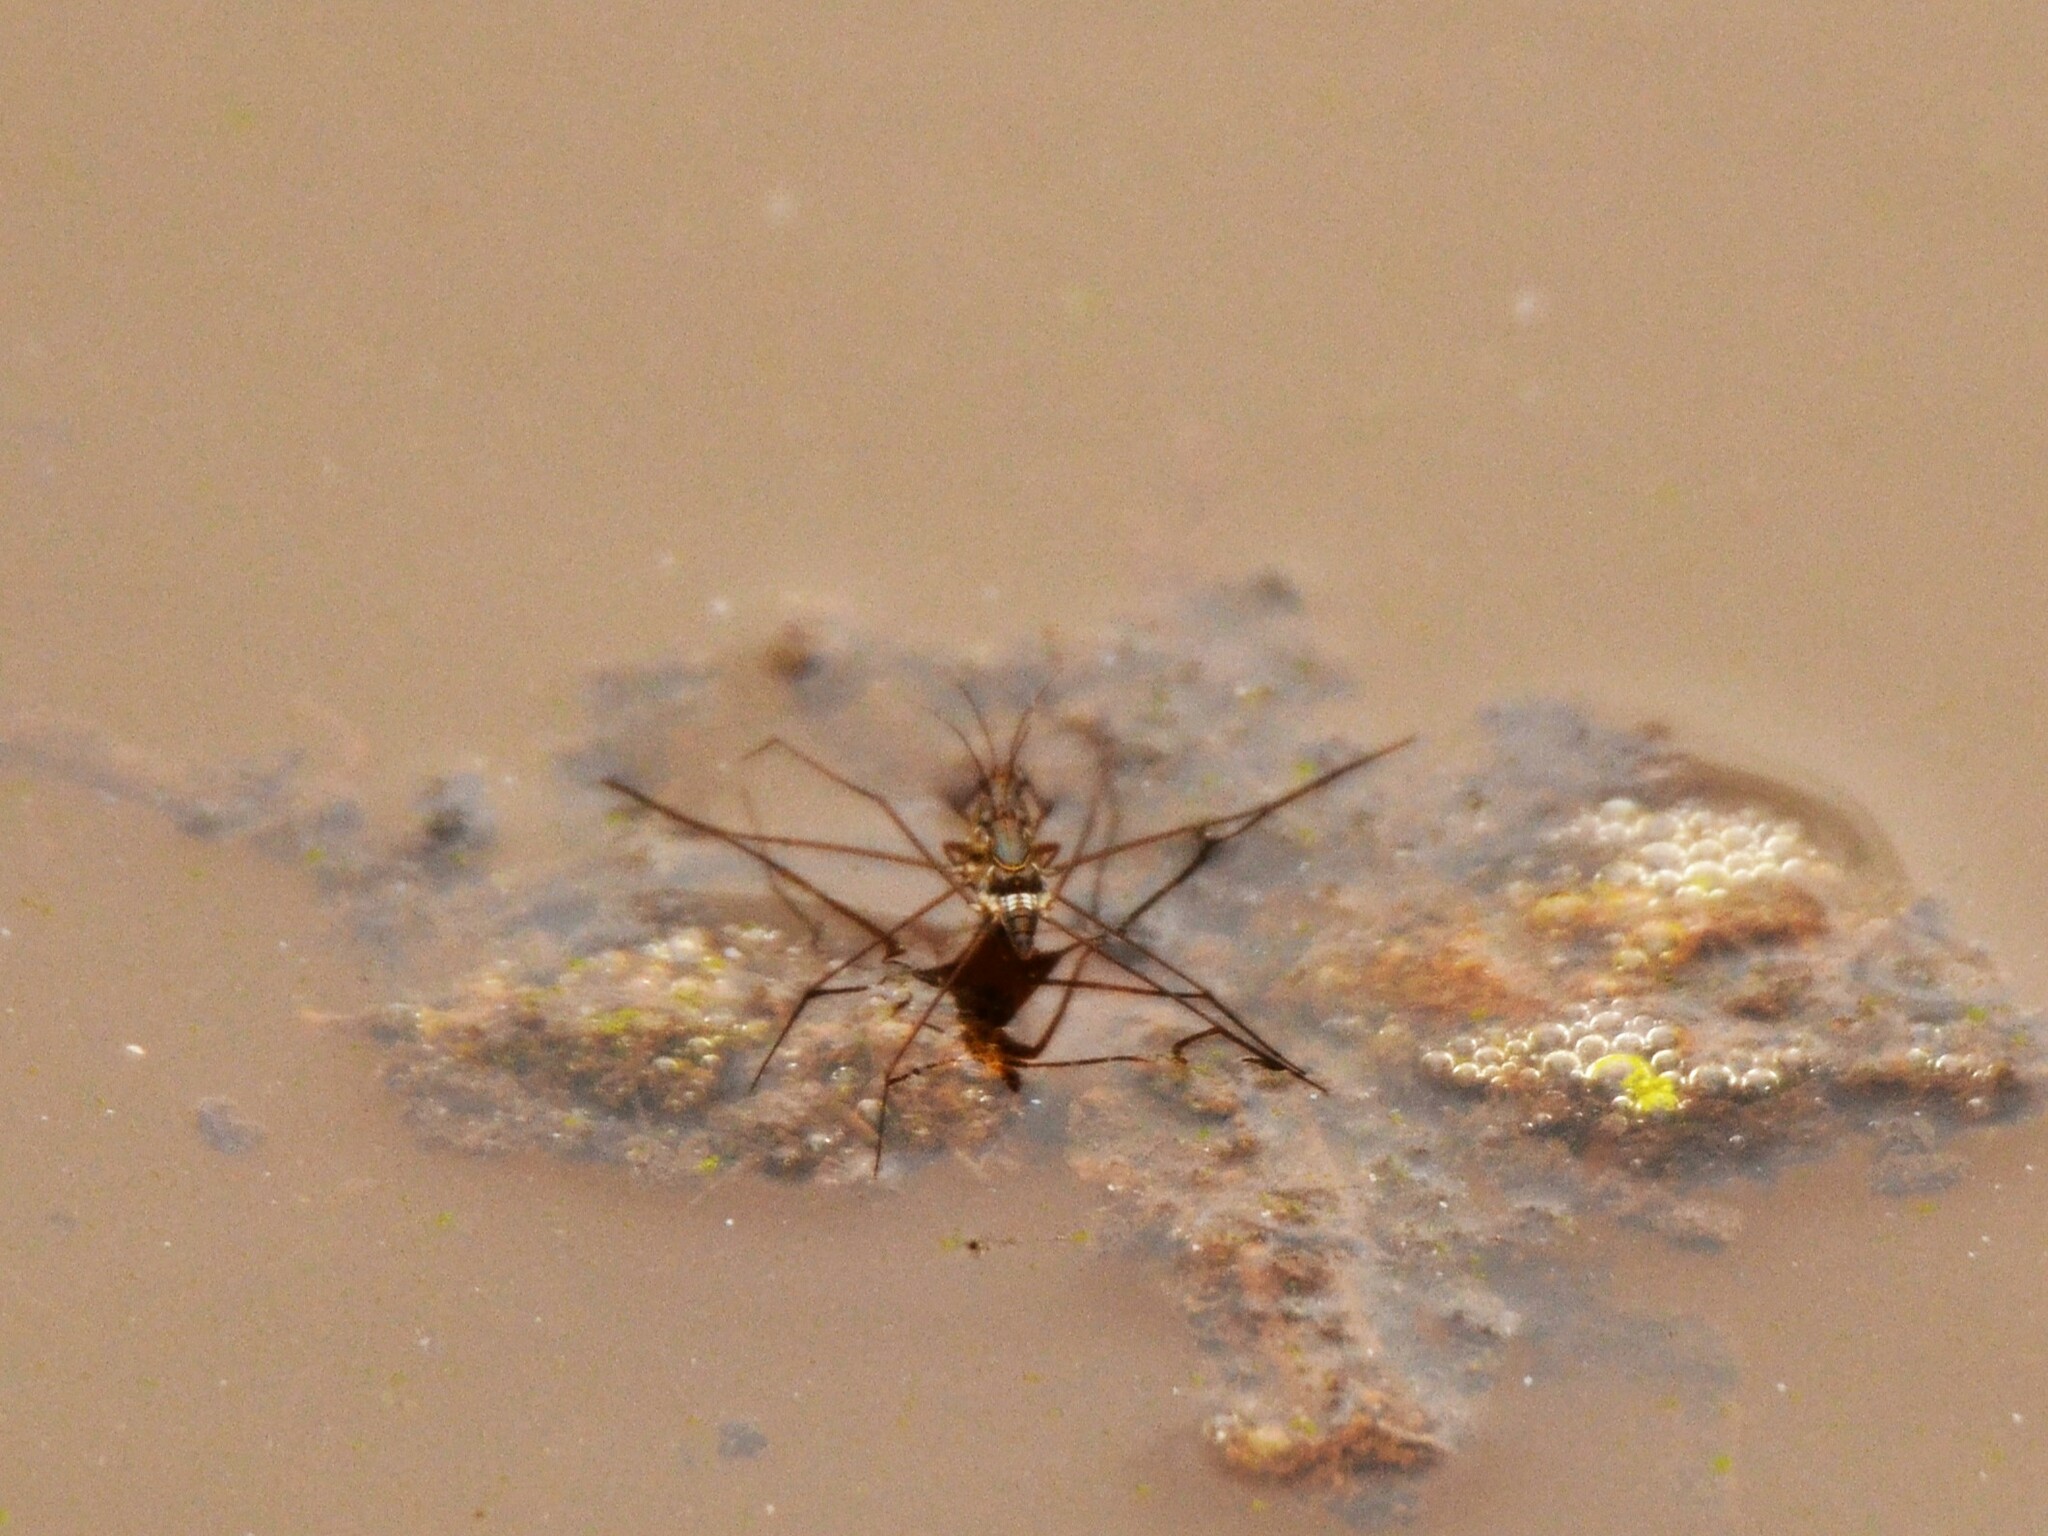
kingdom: Animalia
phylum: Arthropoda
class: Insecta
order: Hemiptera
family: Gerridae
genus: Limnogonus
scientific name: Limnogonus fossarum
